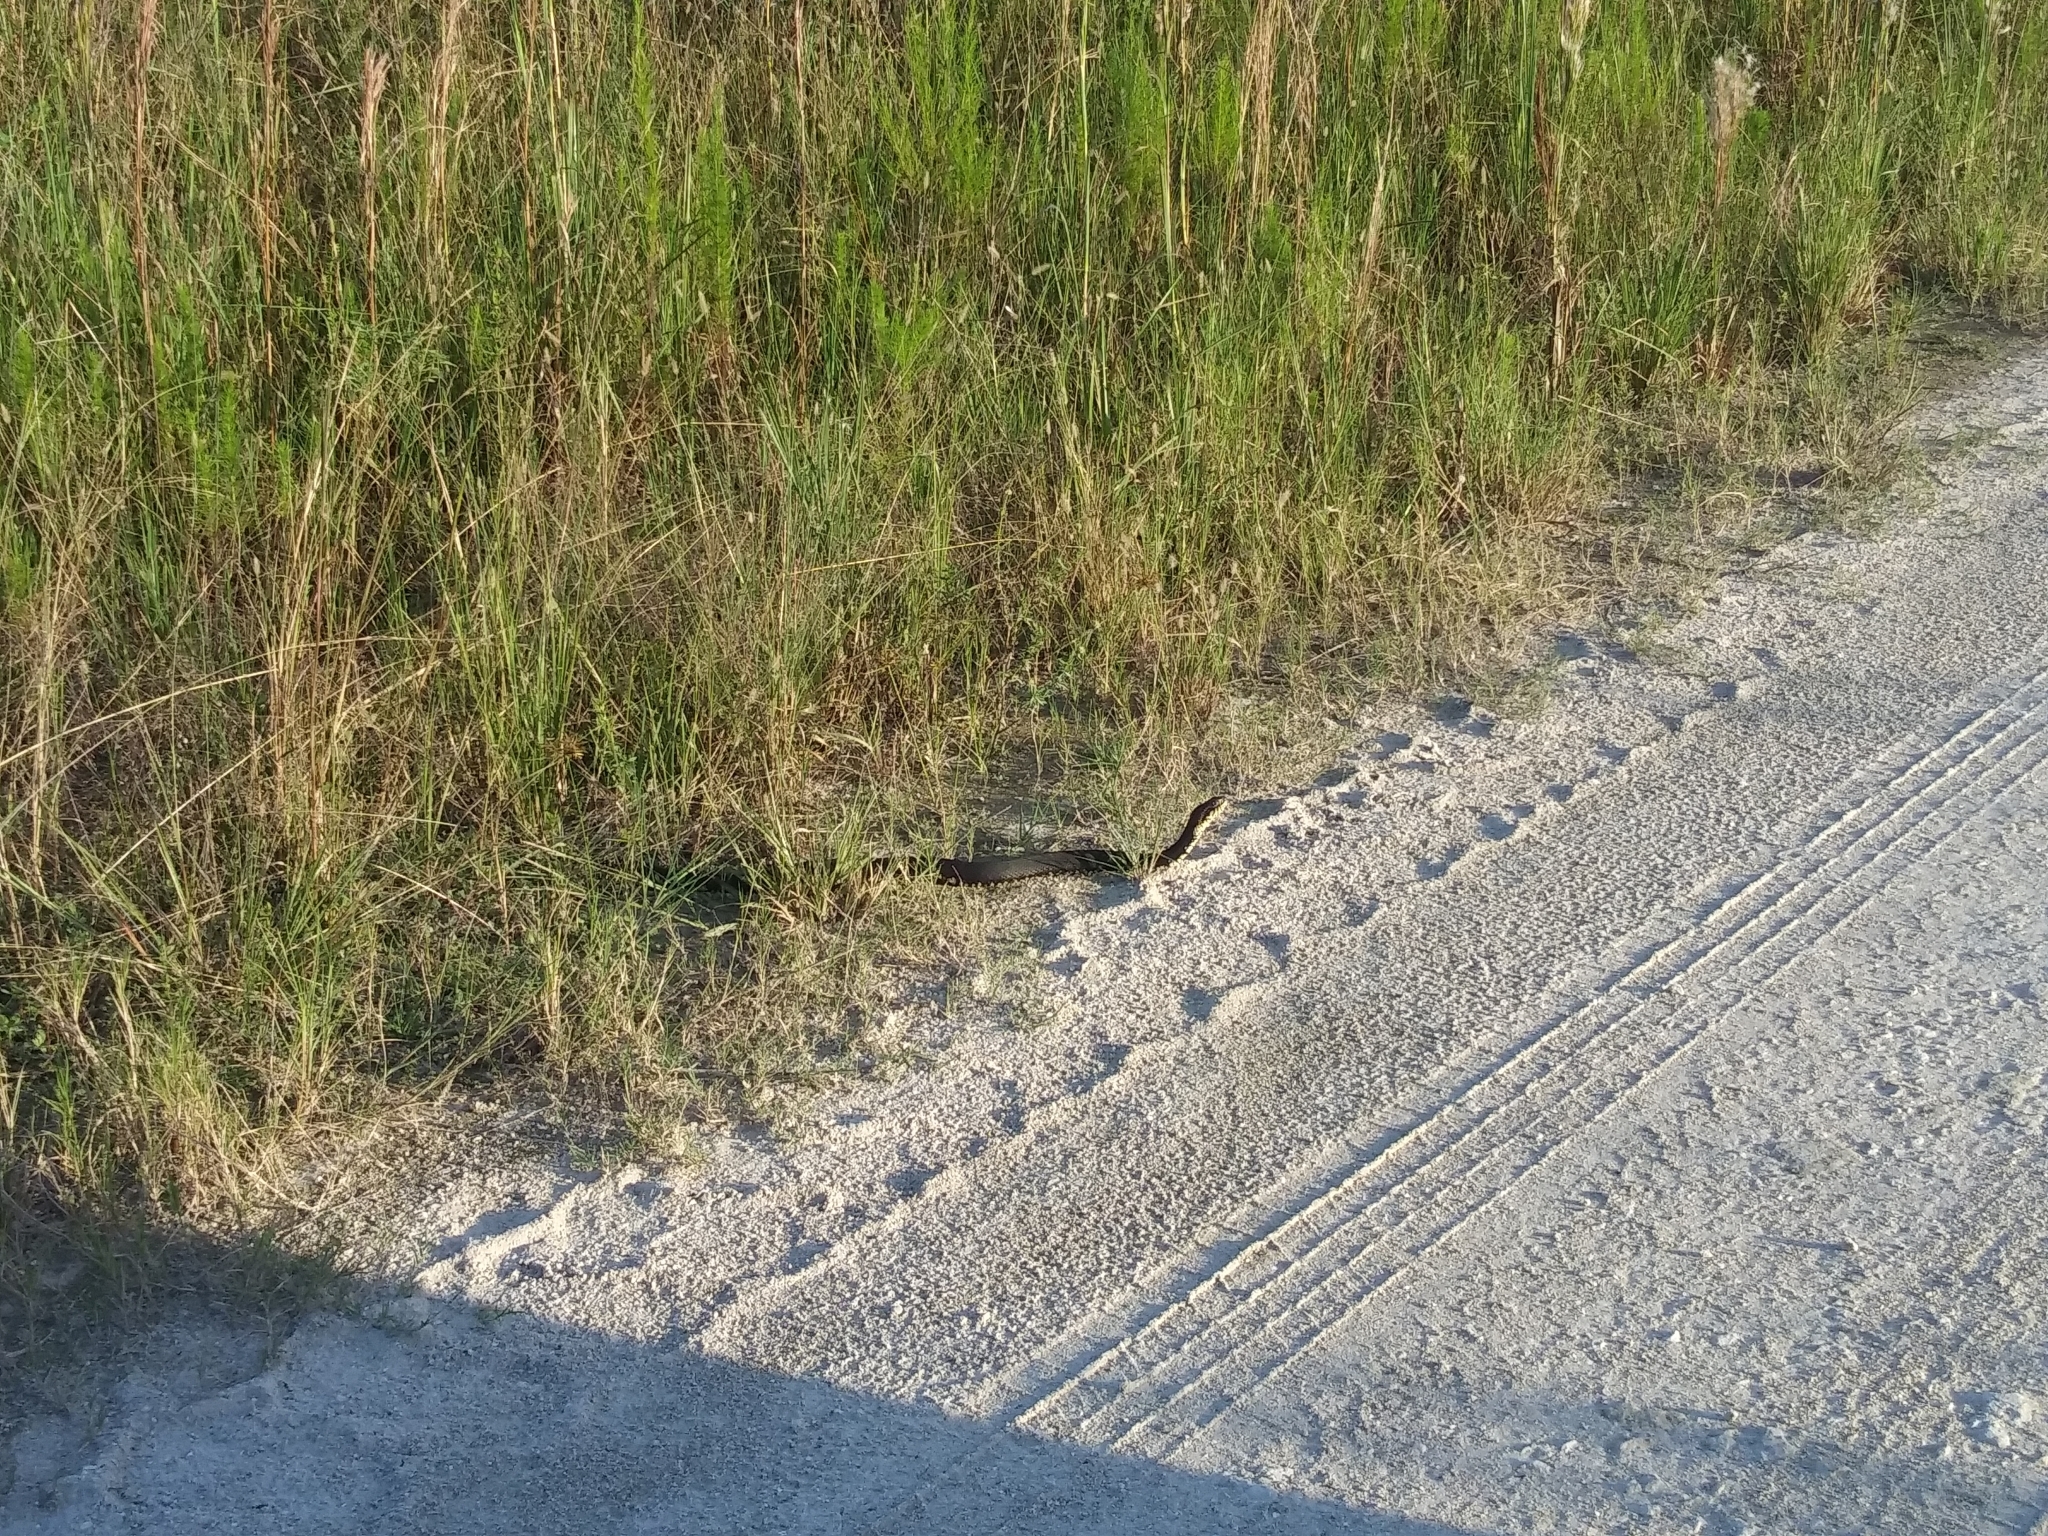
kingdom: Animalia
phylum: Chordata
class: Squamata
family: Colubridae
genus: Nerodia
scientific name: Nerodia fasciata
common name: Southern water snake
